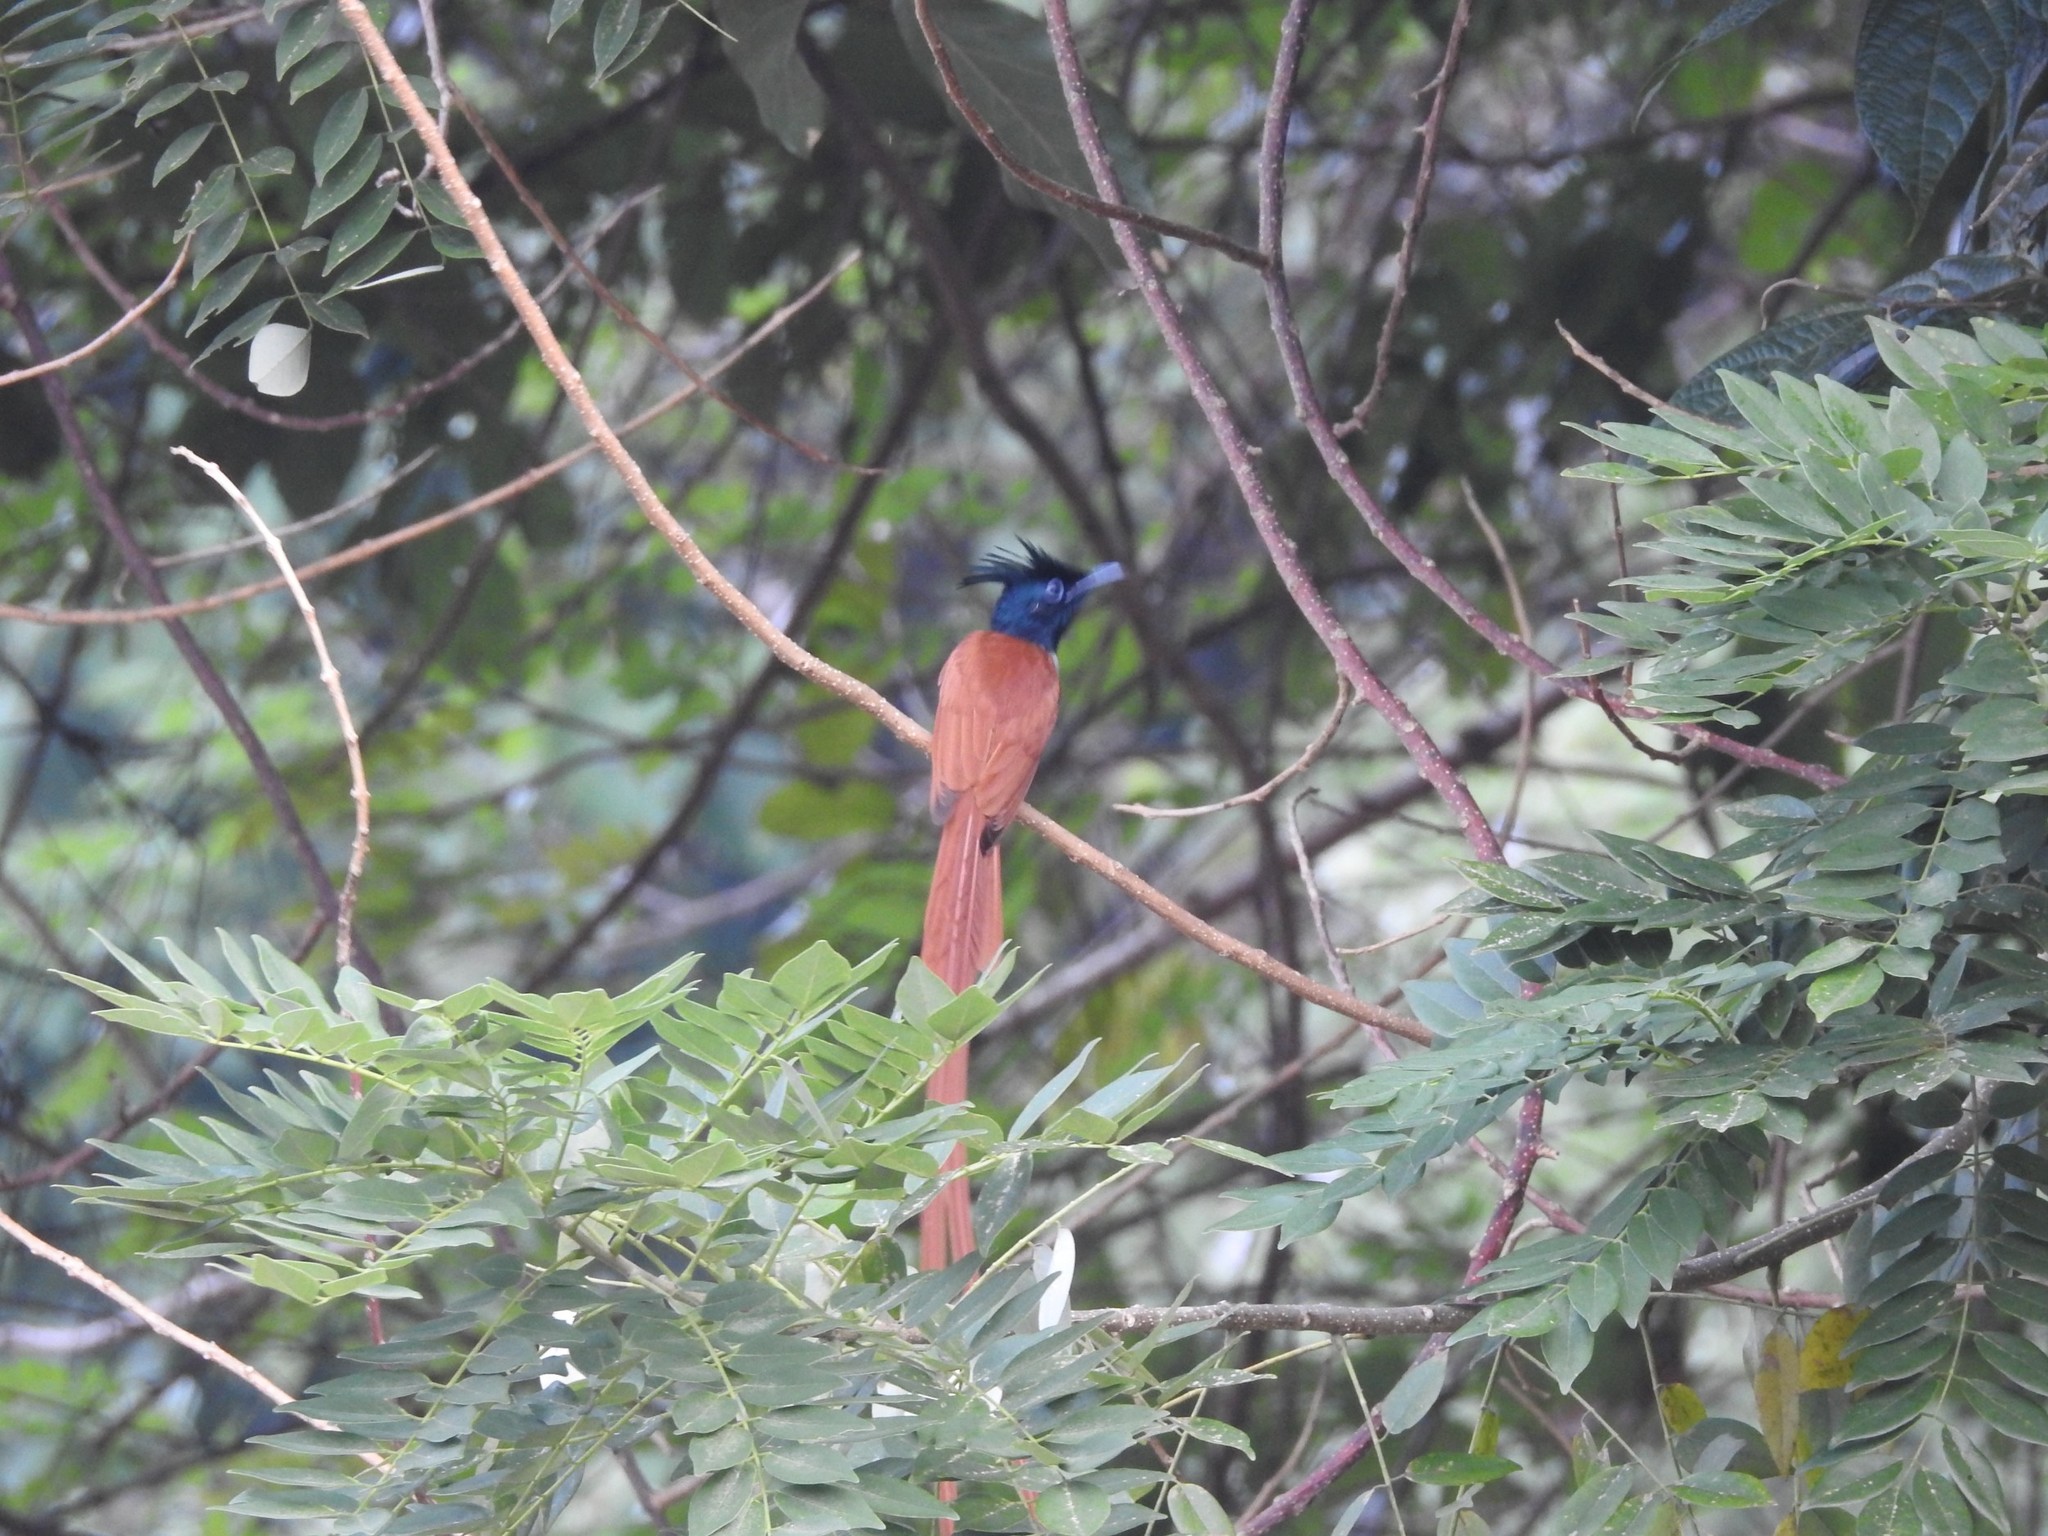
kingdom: Animalia
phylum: Chordata
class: Aves
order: Passeriformes
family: Monarchidae
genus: Terpsiphone
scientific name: Terpsiphone paradisi
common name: Indian paradise flycatcher
